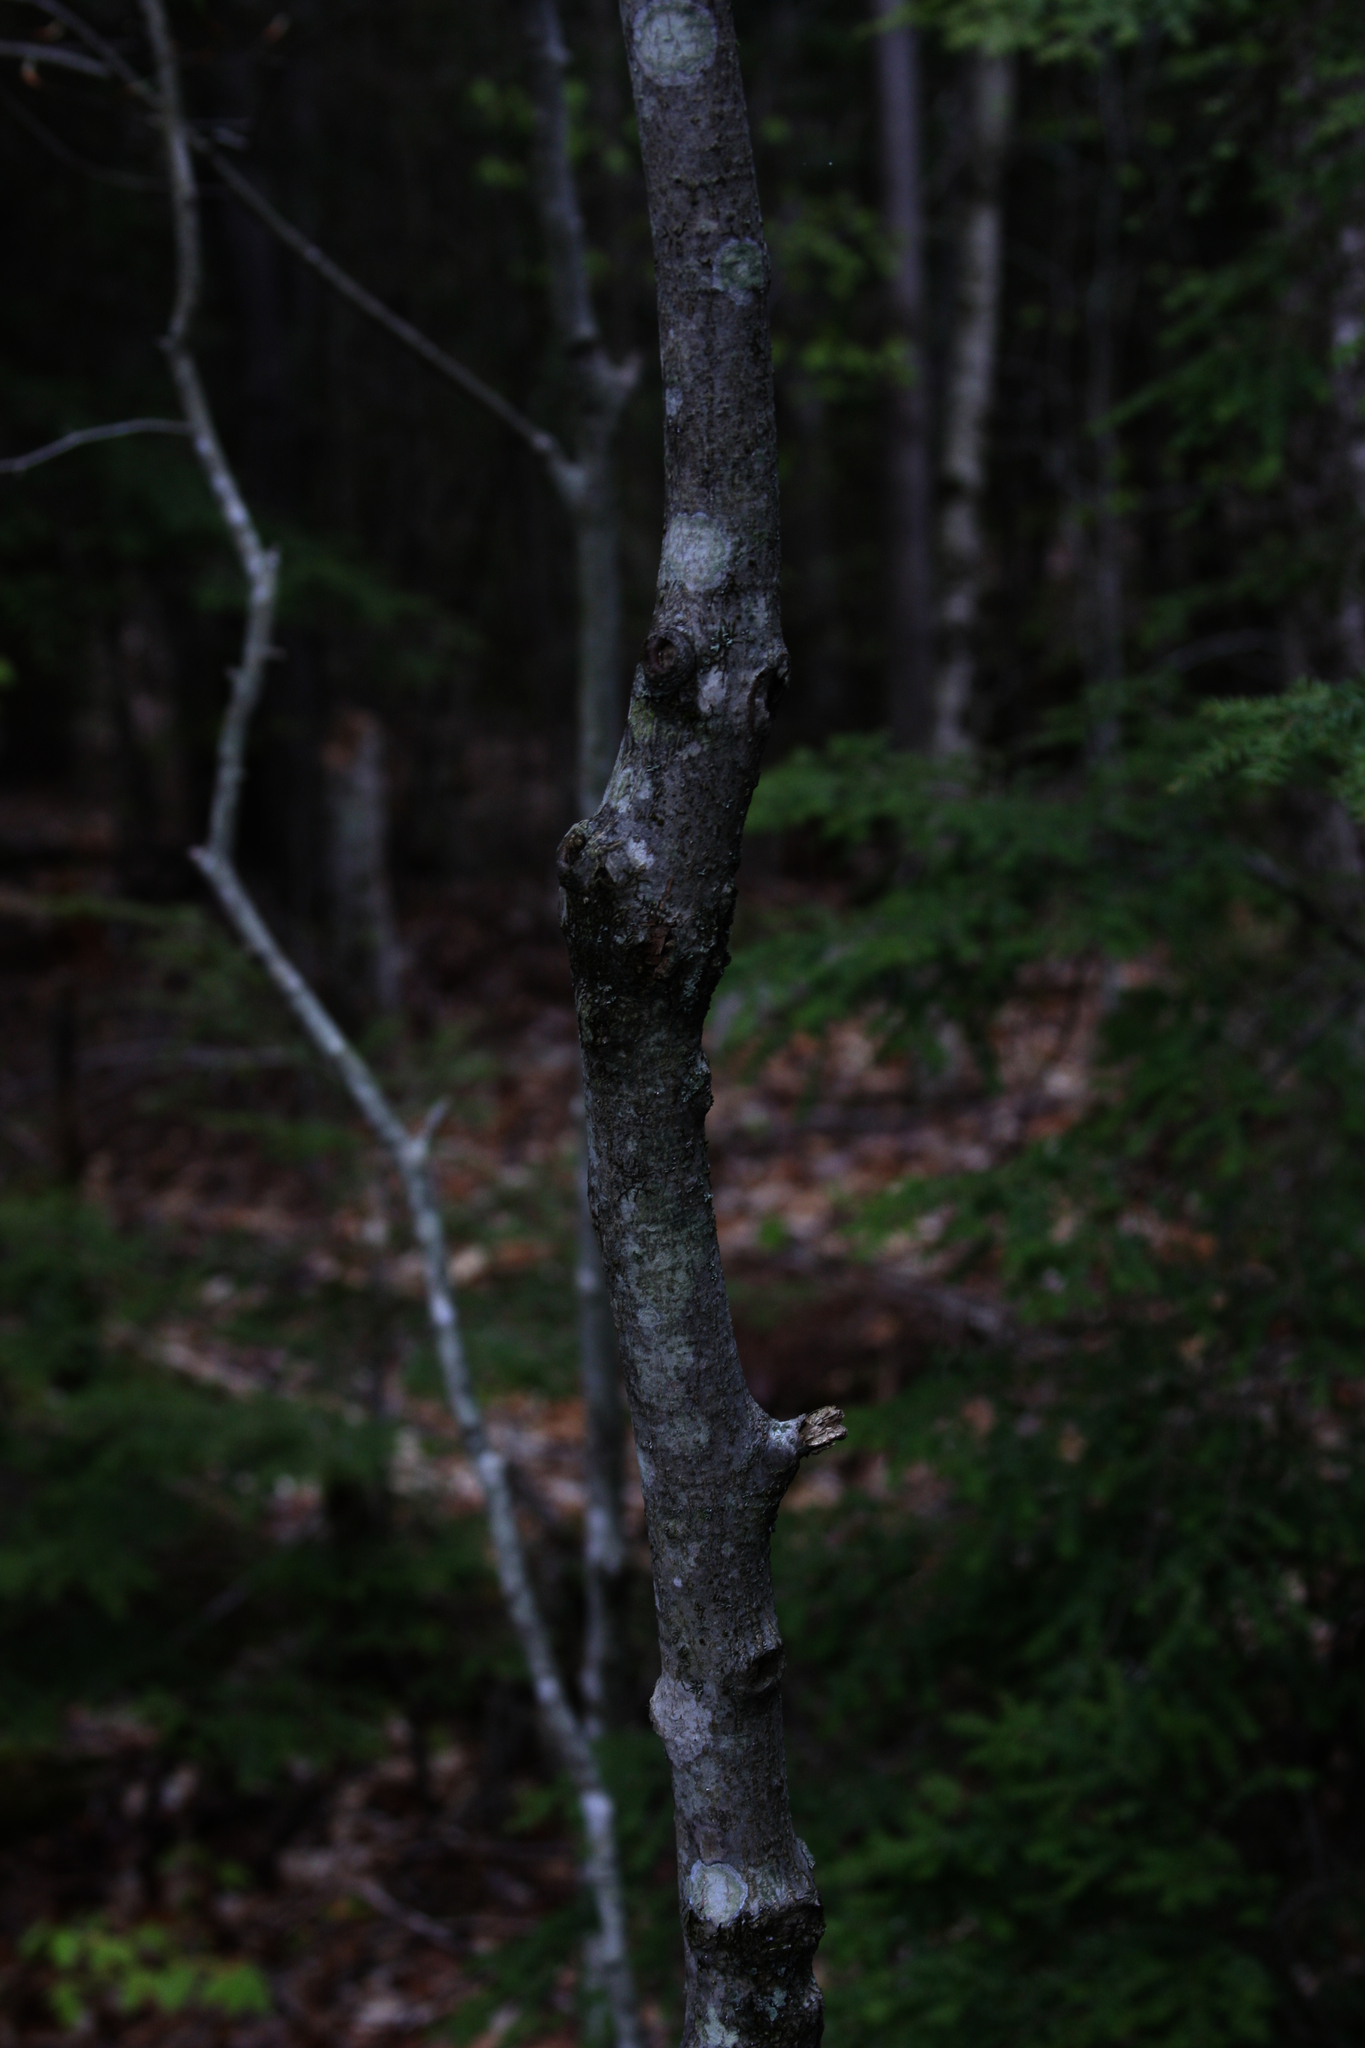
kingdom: Plantae
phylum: Tracheophyta
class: Magnoliopsida
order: Fagales
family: Fagaceae
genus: Fagus
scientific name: Fagus grandifolia
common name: American beech
